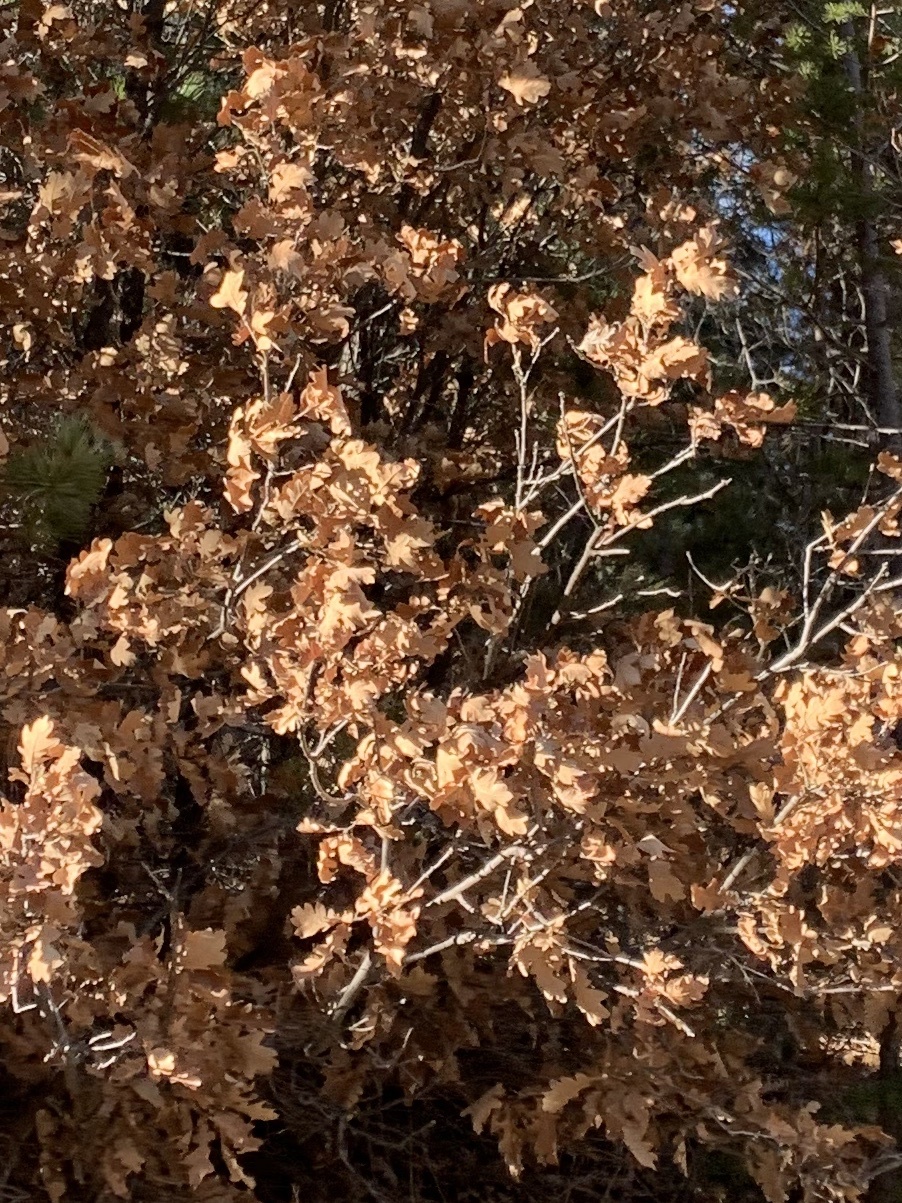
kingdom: Plantae
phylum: Tracheophyta
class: Magnoliopsida
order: Fagales
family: Fagaceae
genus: Quercus
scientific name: Quercus gambelii
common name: Gambel oak
